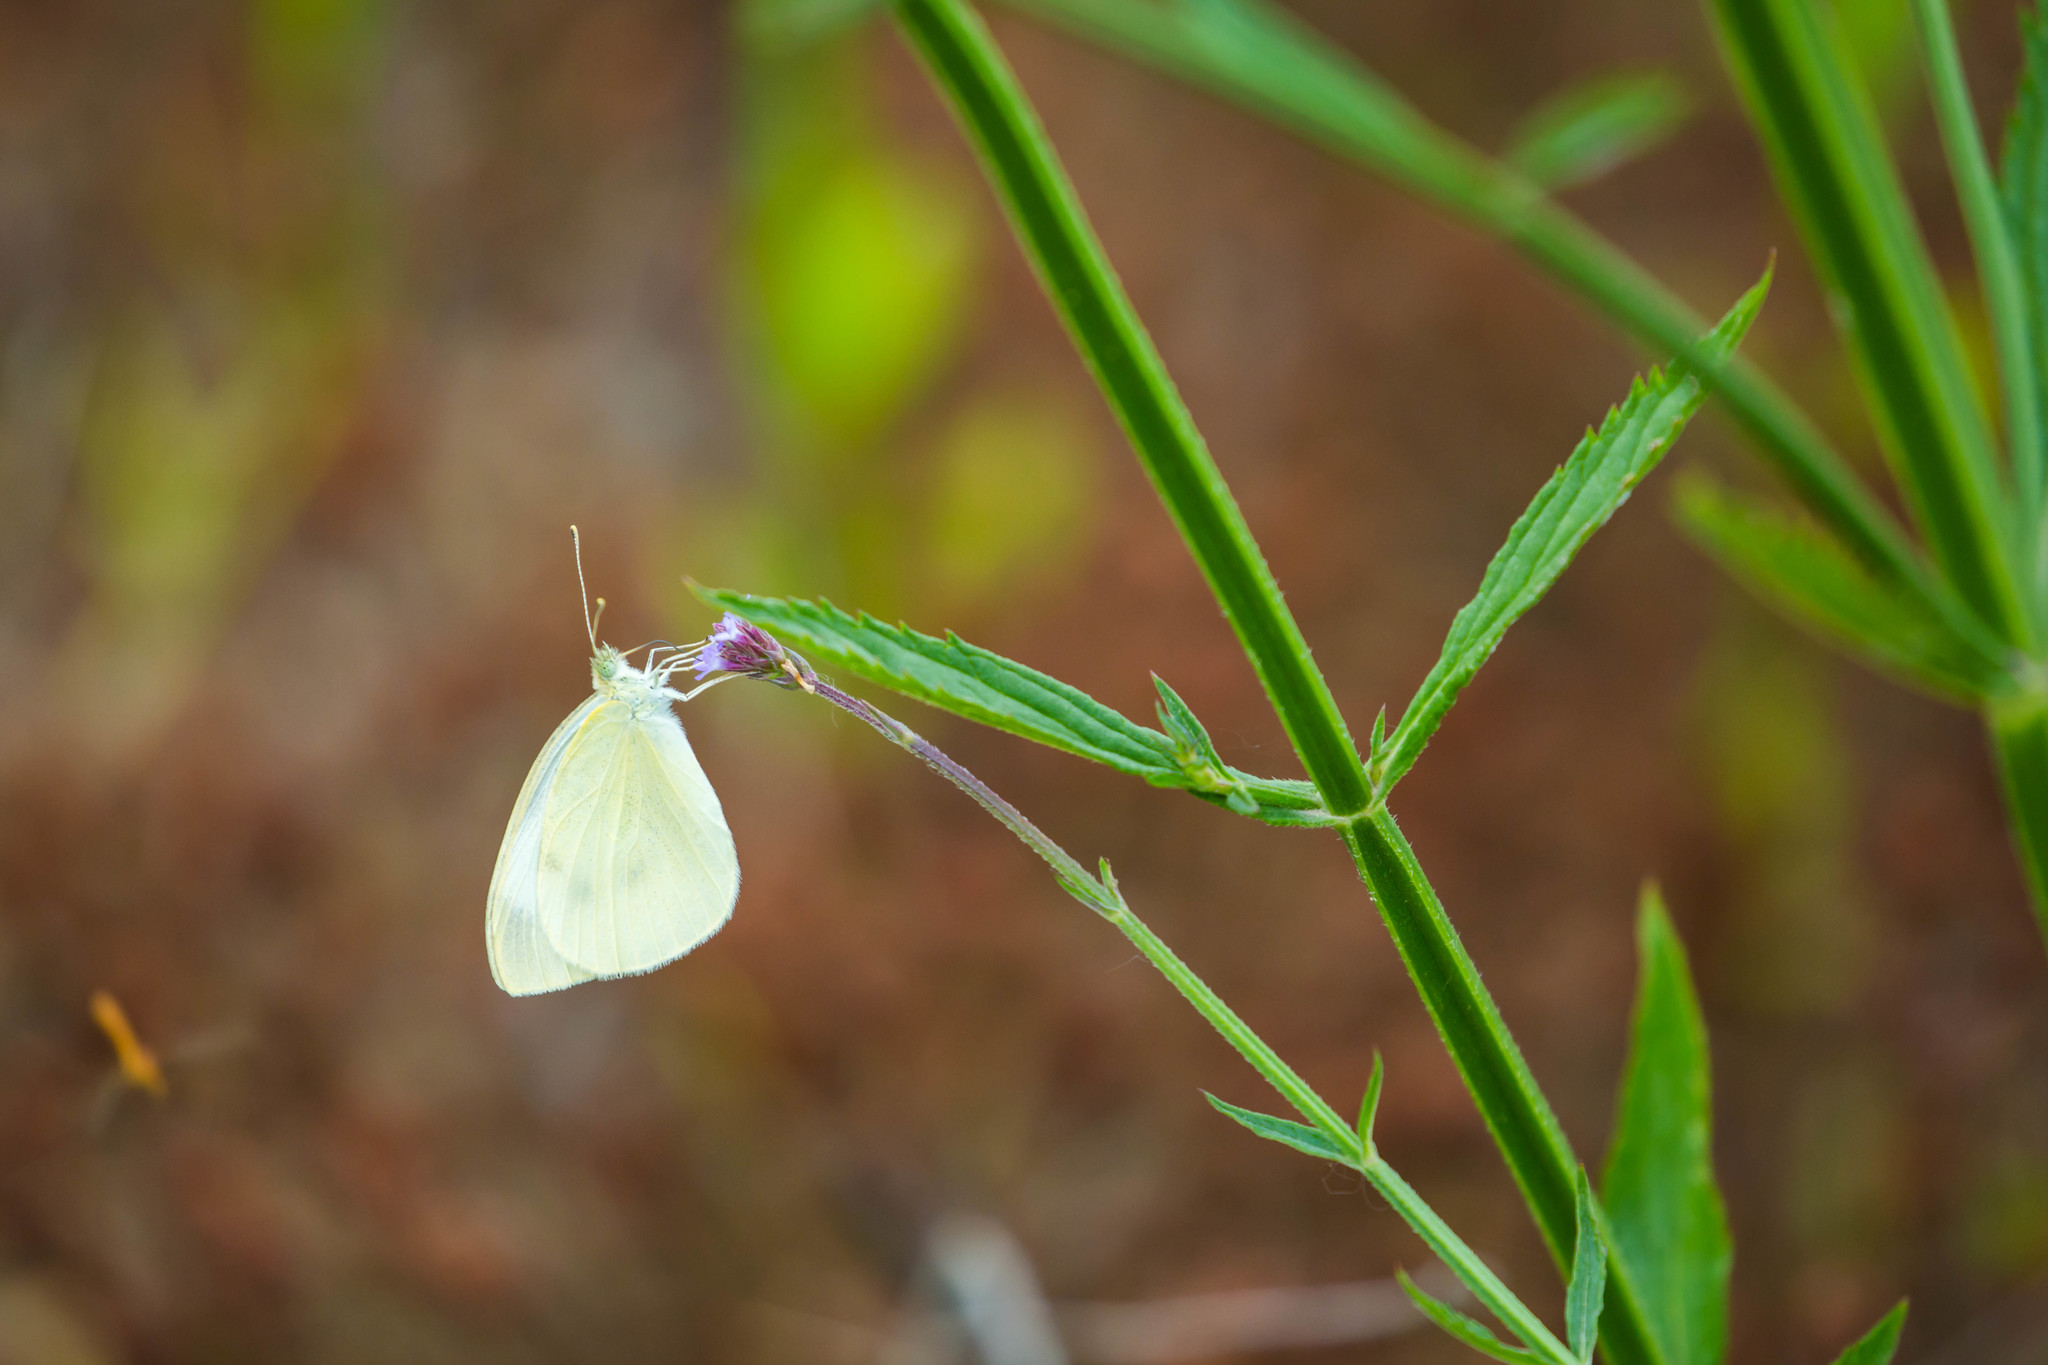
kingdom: Animalia
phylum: Arthropoda
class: Insecta
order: Lepidoptera
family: Pieridae
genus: Pieris
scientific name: Pieris rapae
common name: Small white
